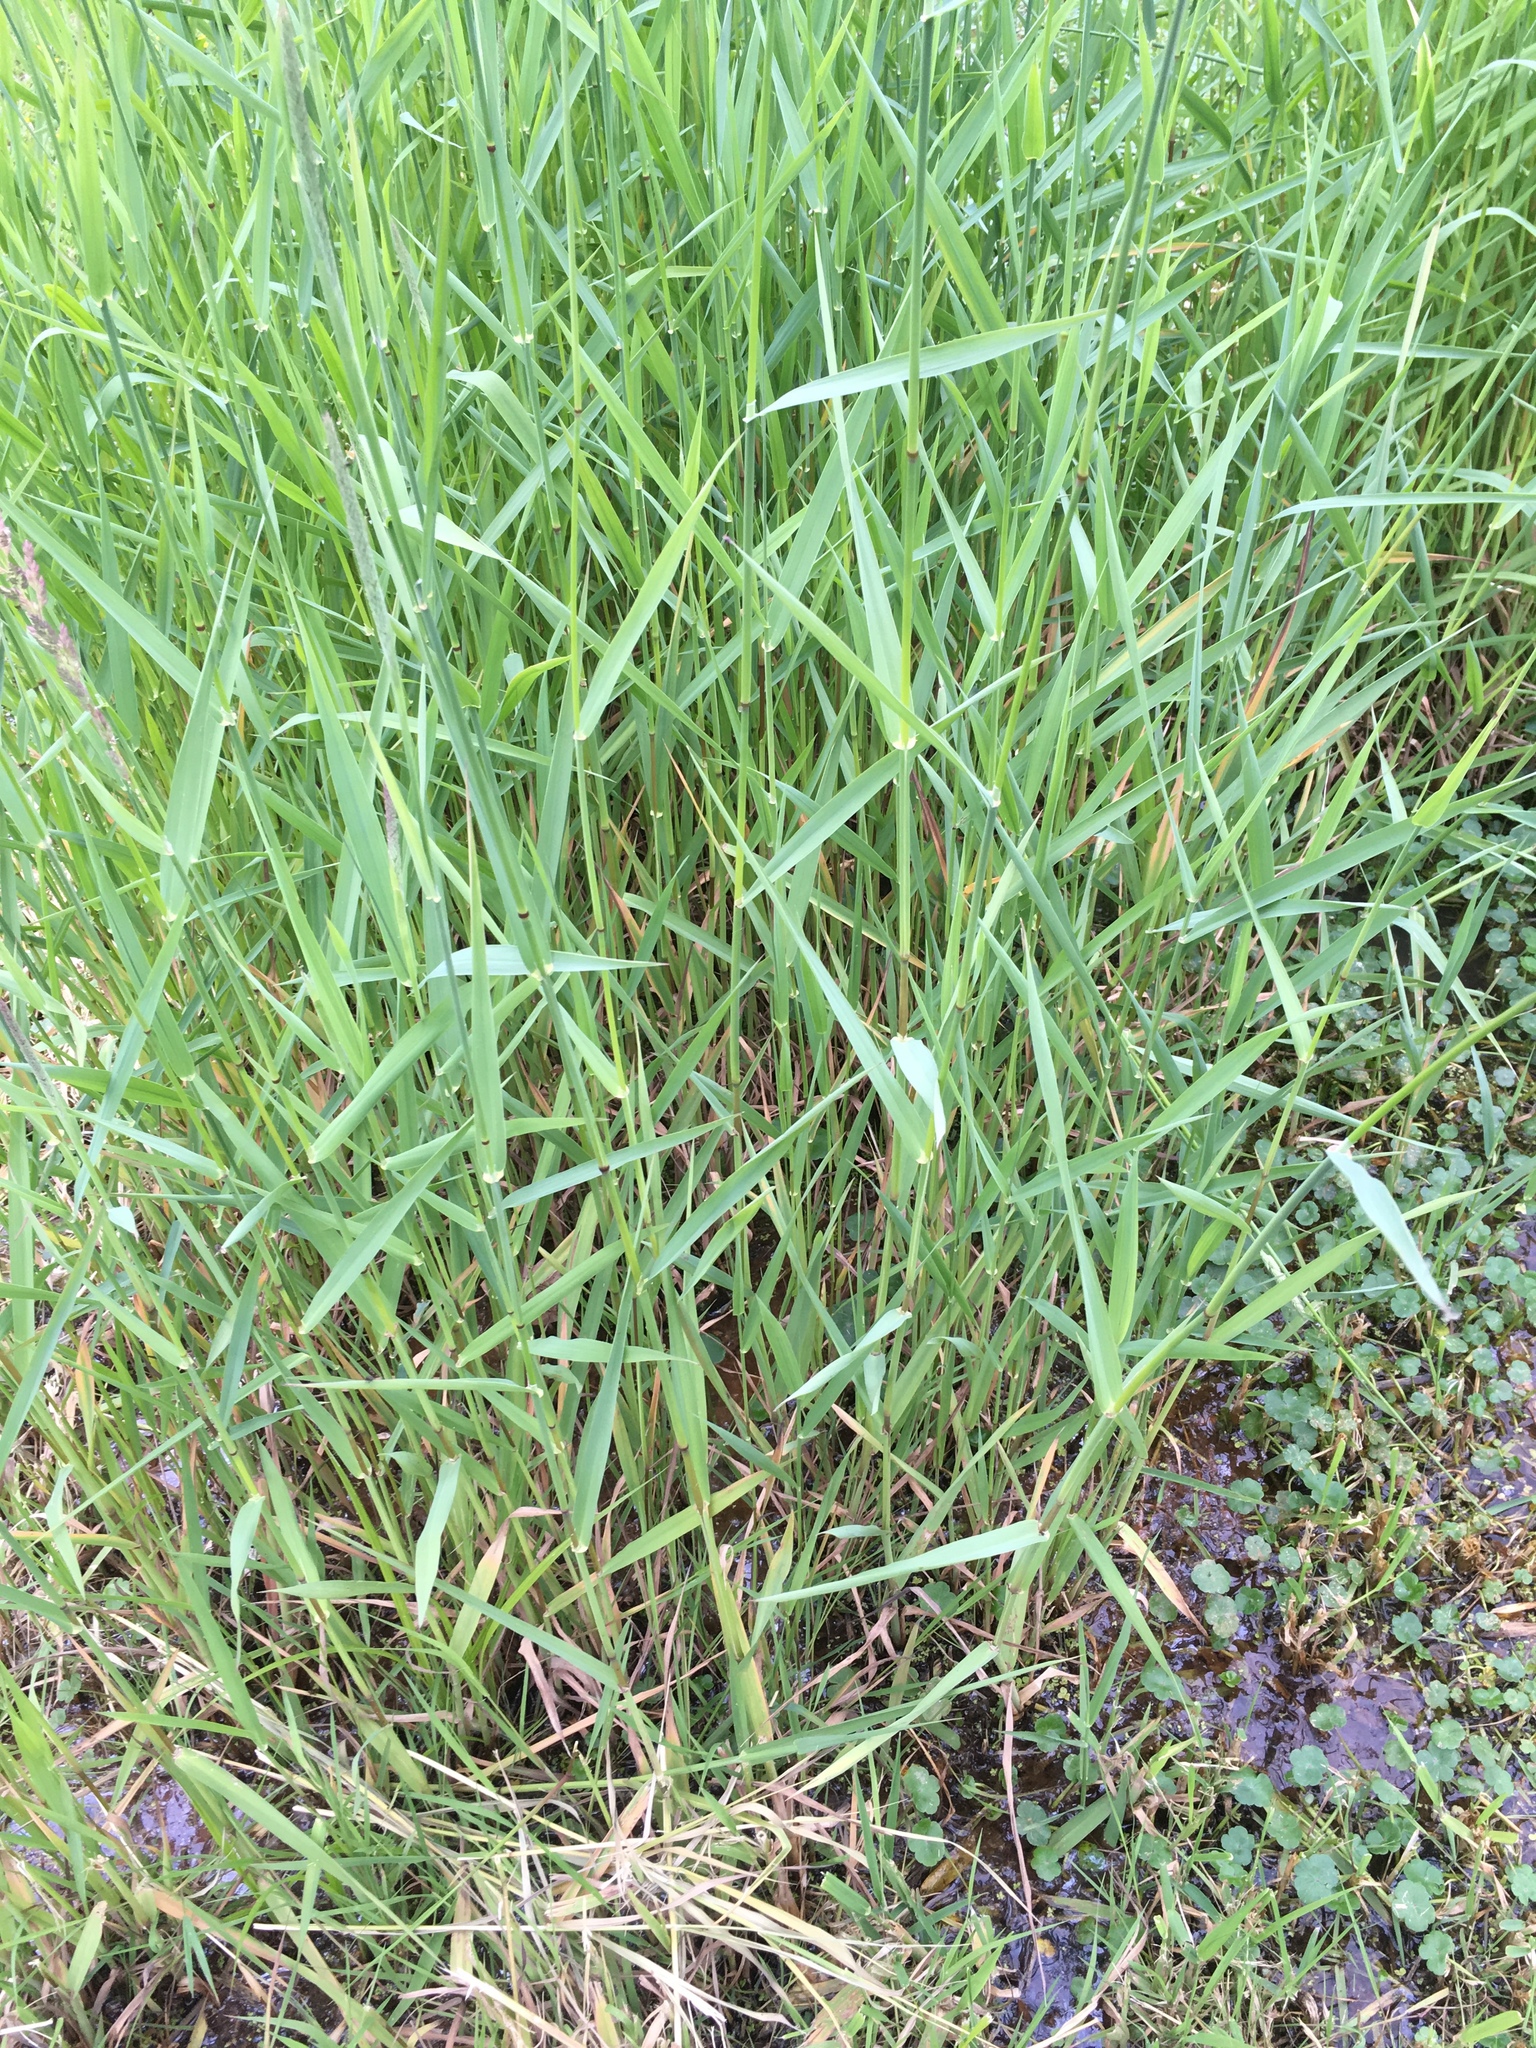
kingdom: Plantae
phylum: Tracheophyta
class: Liliopsida
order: Poales
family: Poaceae
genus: Phalaris
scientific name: Phalaris arundinacea
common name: Reed canary-grass
